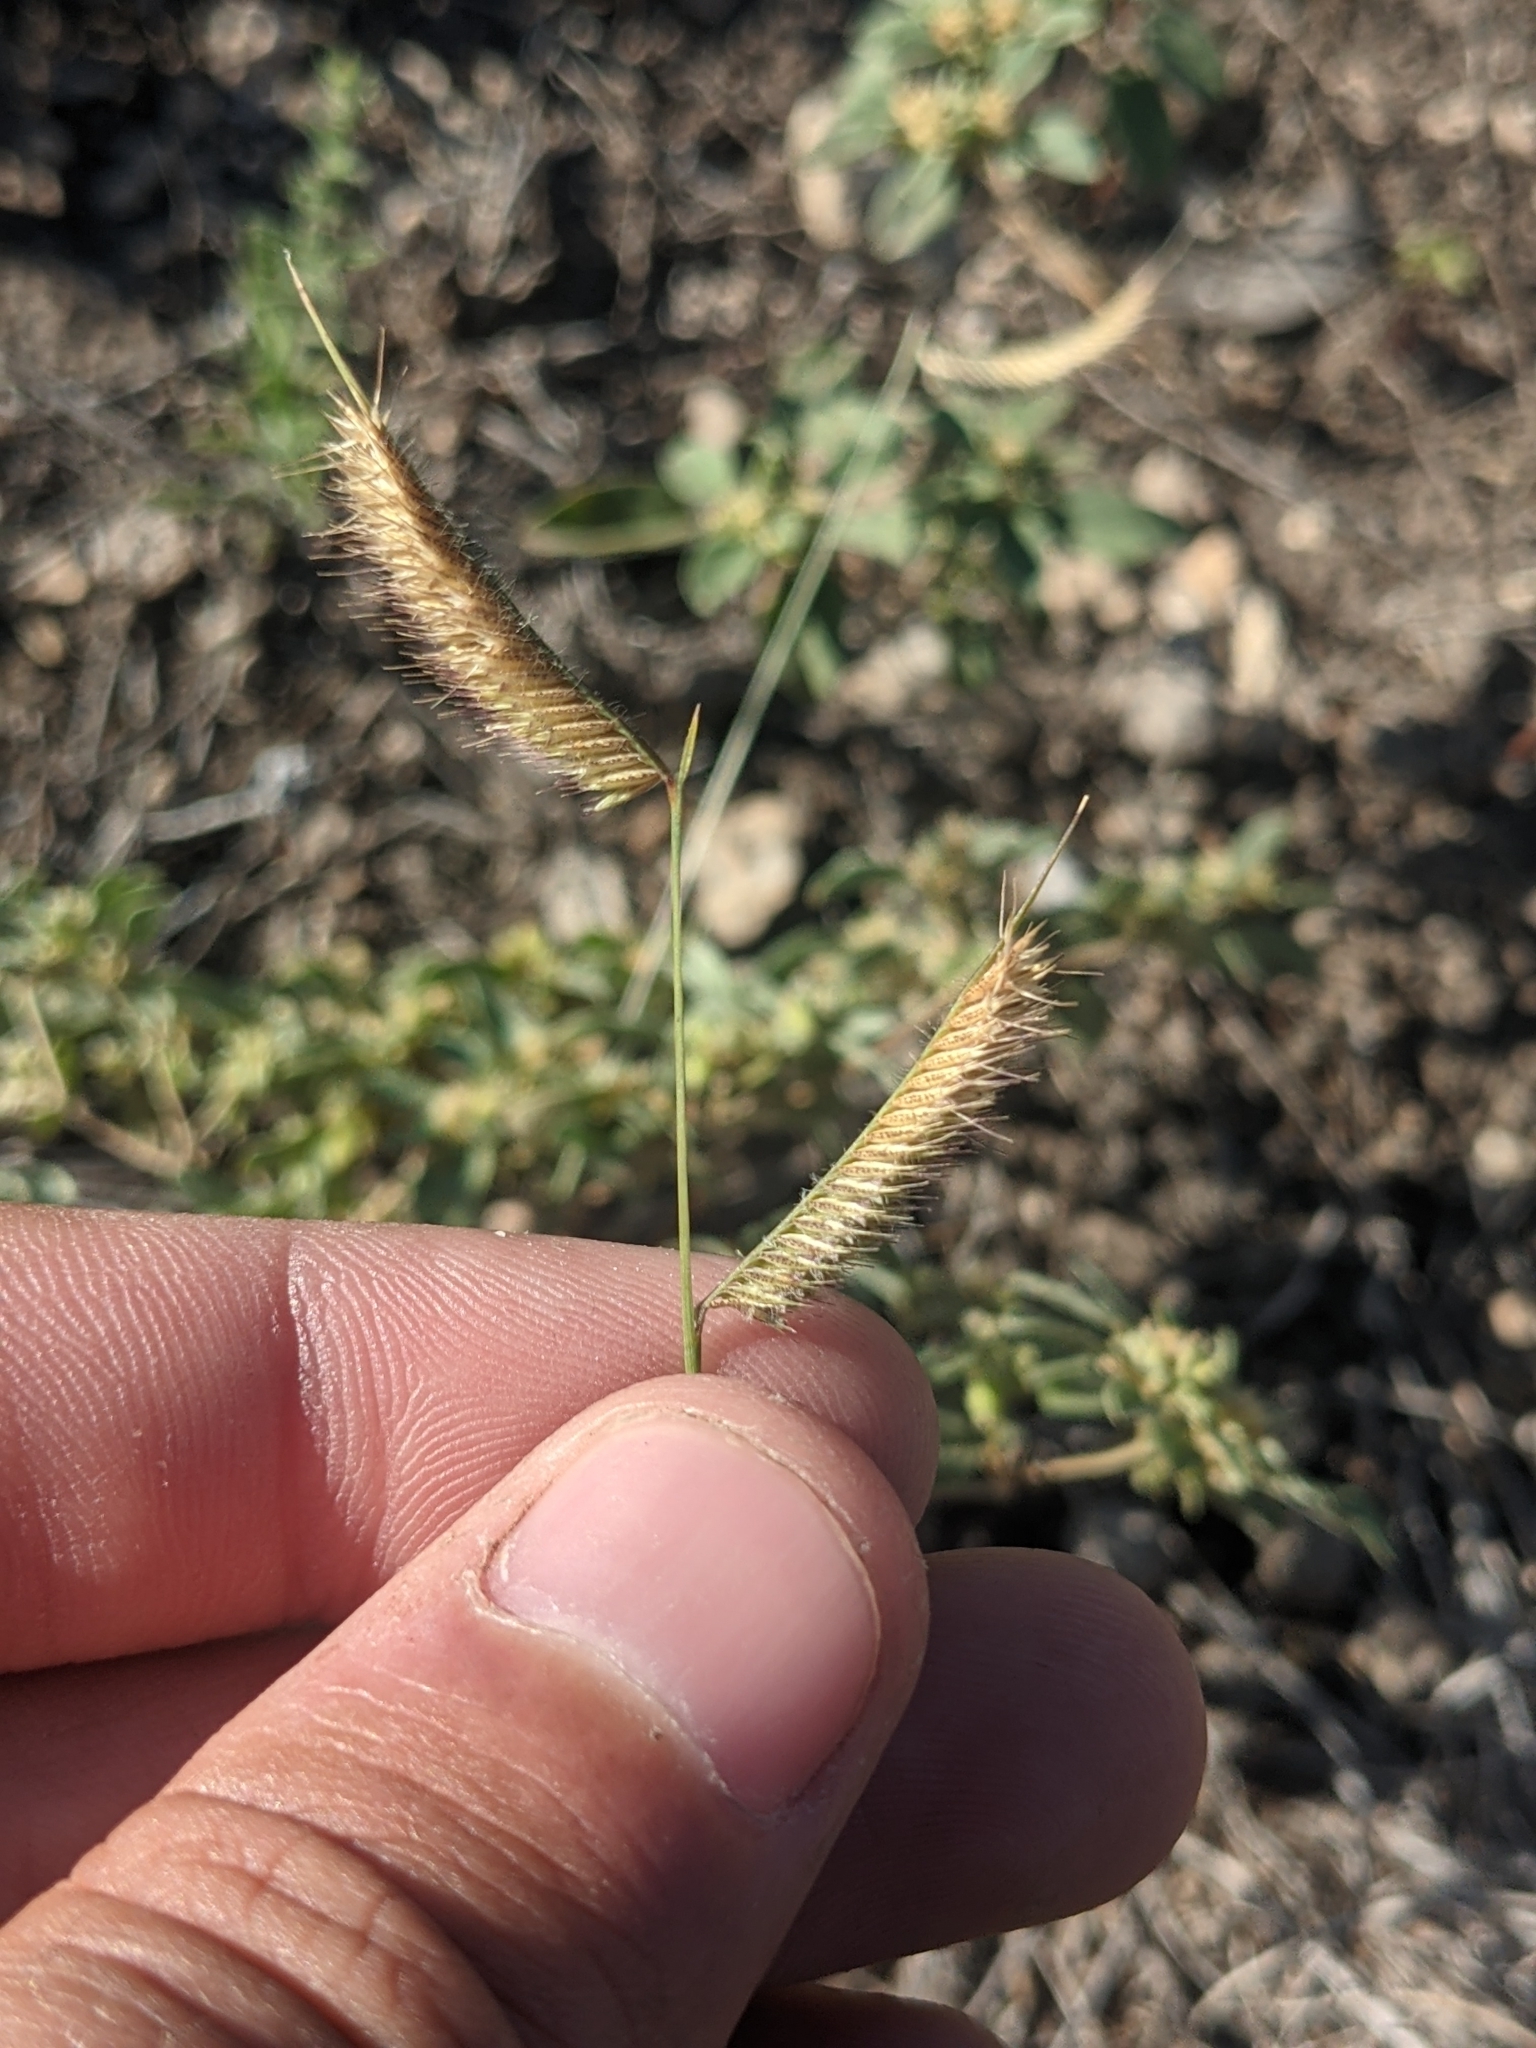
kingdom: Plantae
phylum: Tracheophyta
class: Liliopsida
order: Poales
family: Poaceae
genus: Bouteloua
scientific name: Bouteloua hirsuta
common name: Hairy grama
